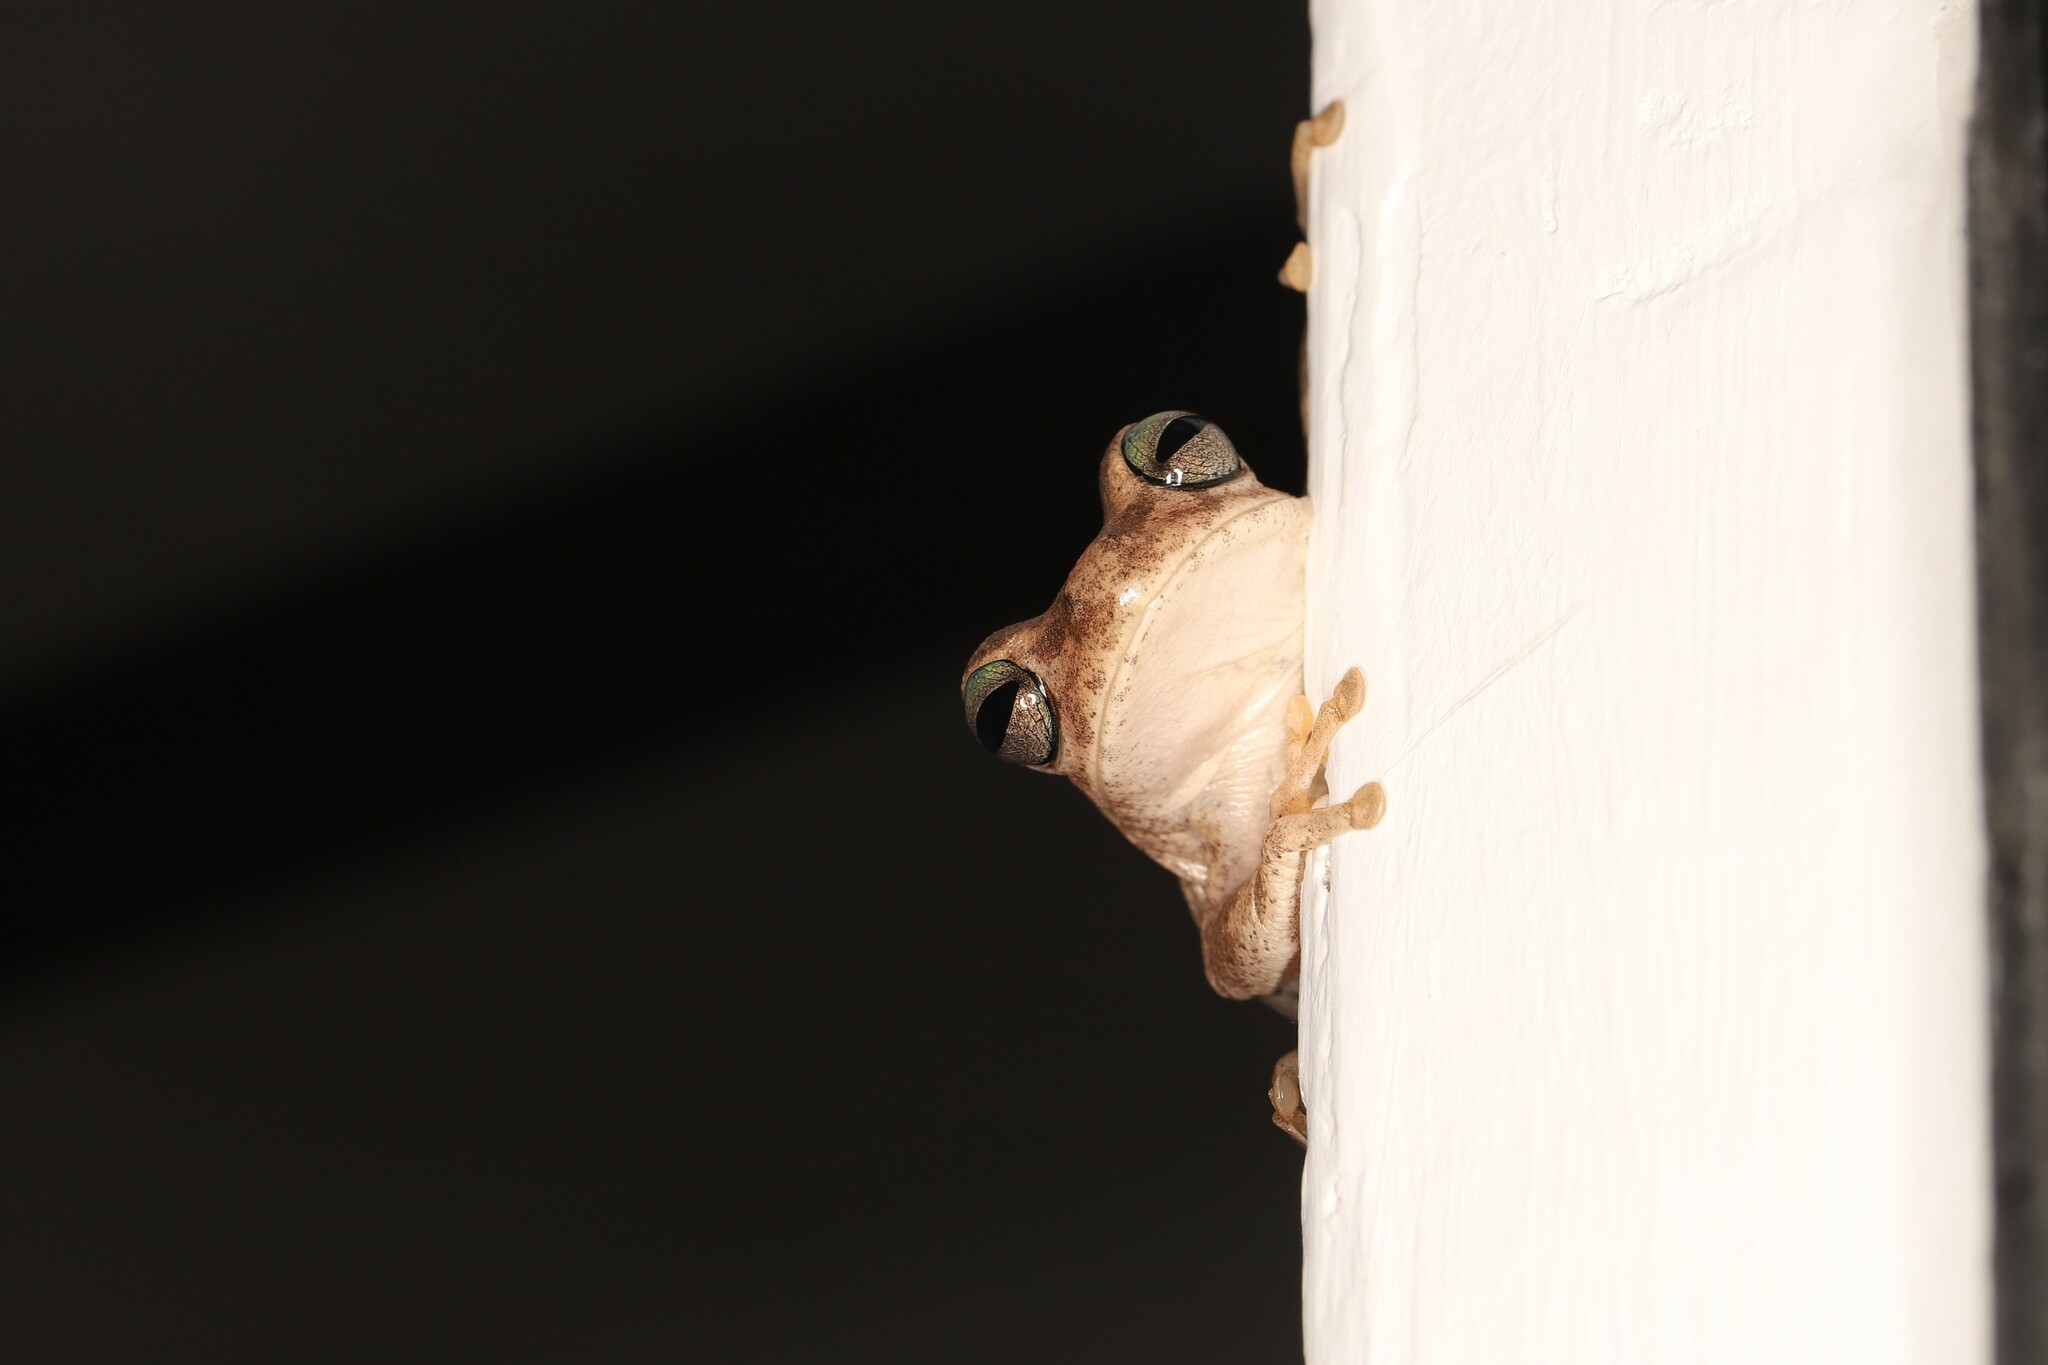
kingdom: Animalia
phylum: Chordata
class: Amphibia
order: Anura
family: Hylidae
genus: Boana
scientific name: Boana pugnax
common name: Chirique-flusse treefrog
